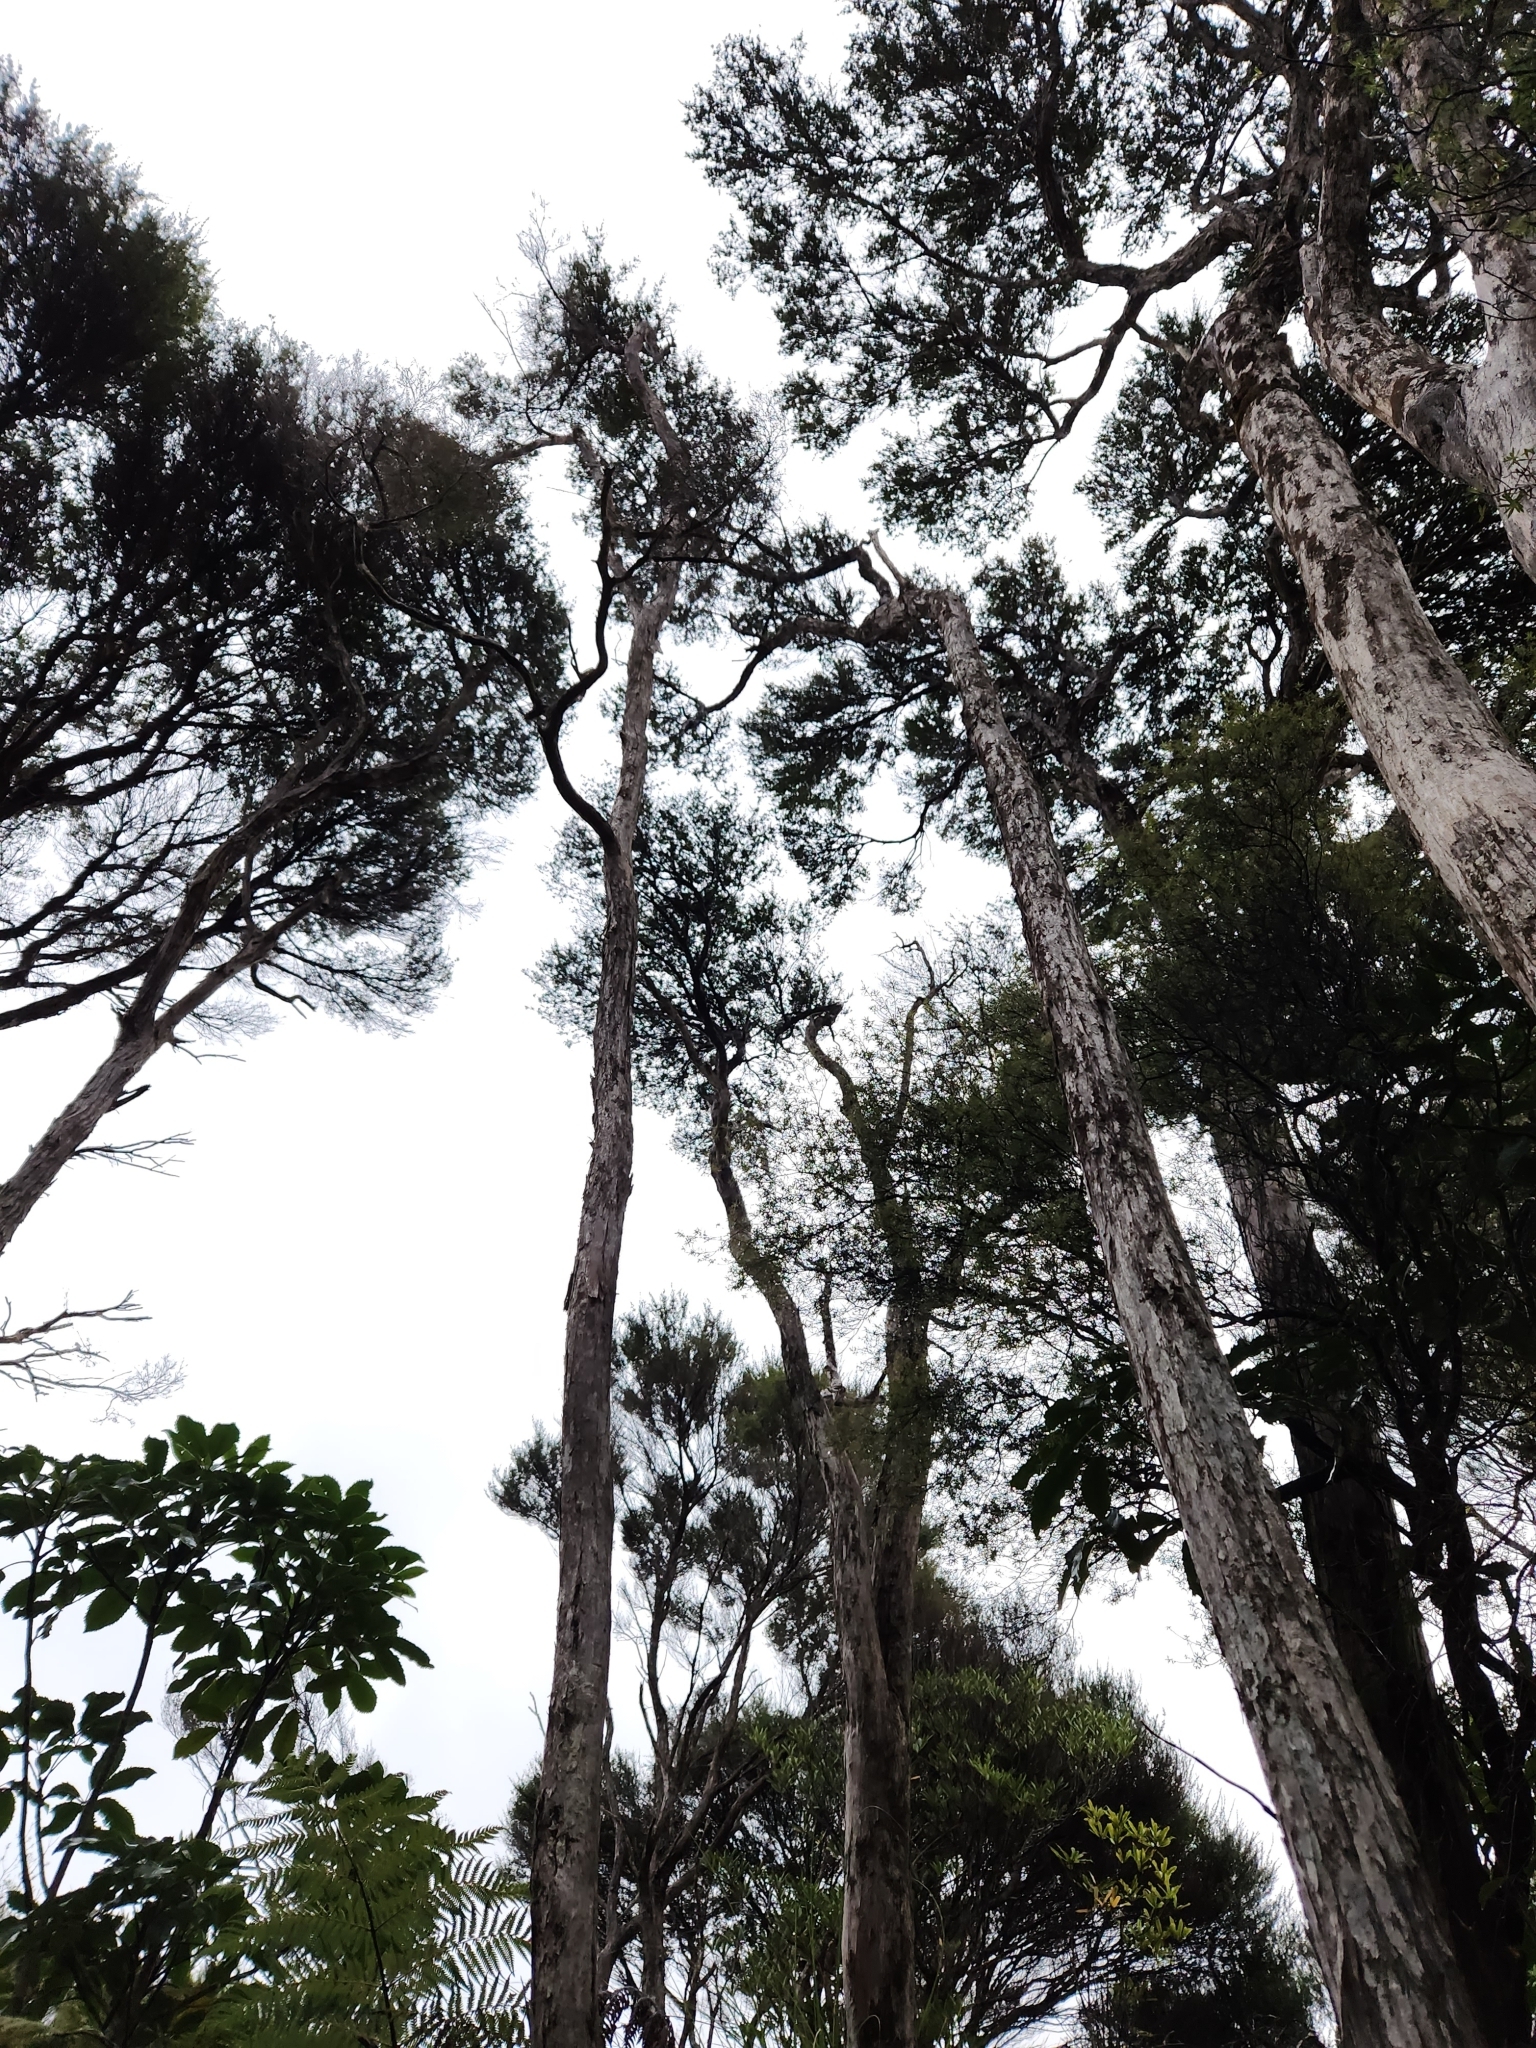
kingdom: Plantae
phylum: Tracheophyta
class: Liliopsida
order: Asparagales
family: Orchidaceae
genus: Pterostylis
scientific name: Pterostylis alobula
